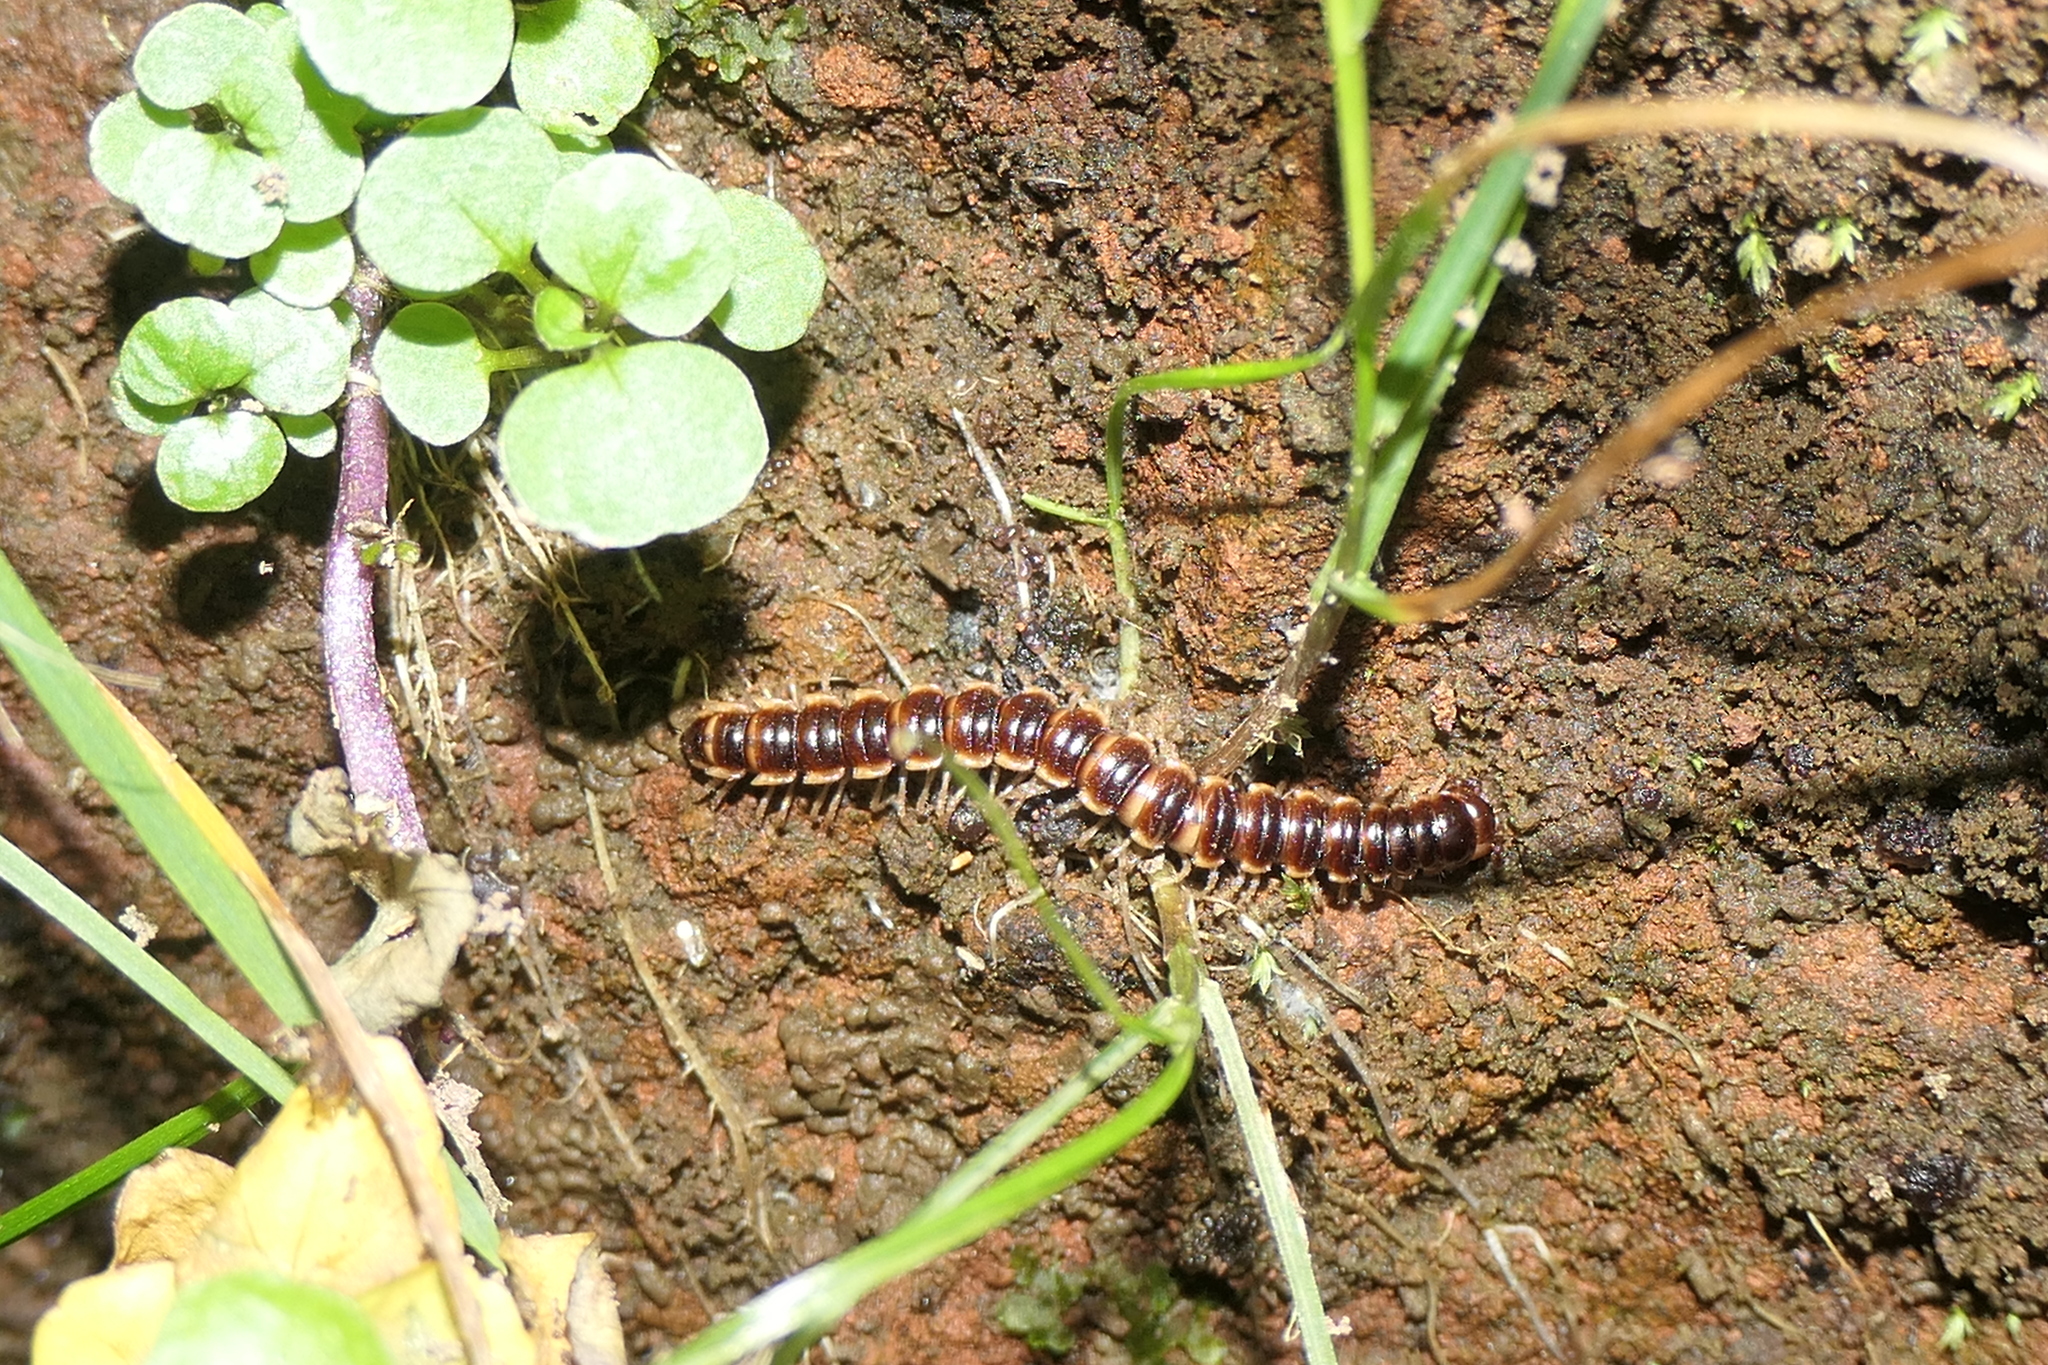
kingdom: Animalia
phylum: Arthropoda
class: Diplopoda
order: Polydesmida
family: Paradoxosomatidae
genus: Oxidus
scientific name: Oxidus gracilis
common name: Greenhouse millipede
